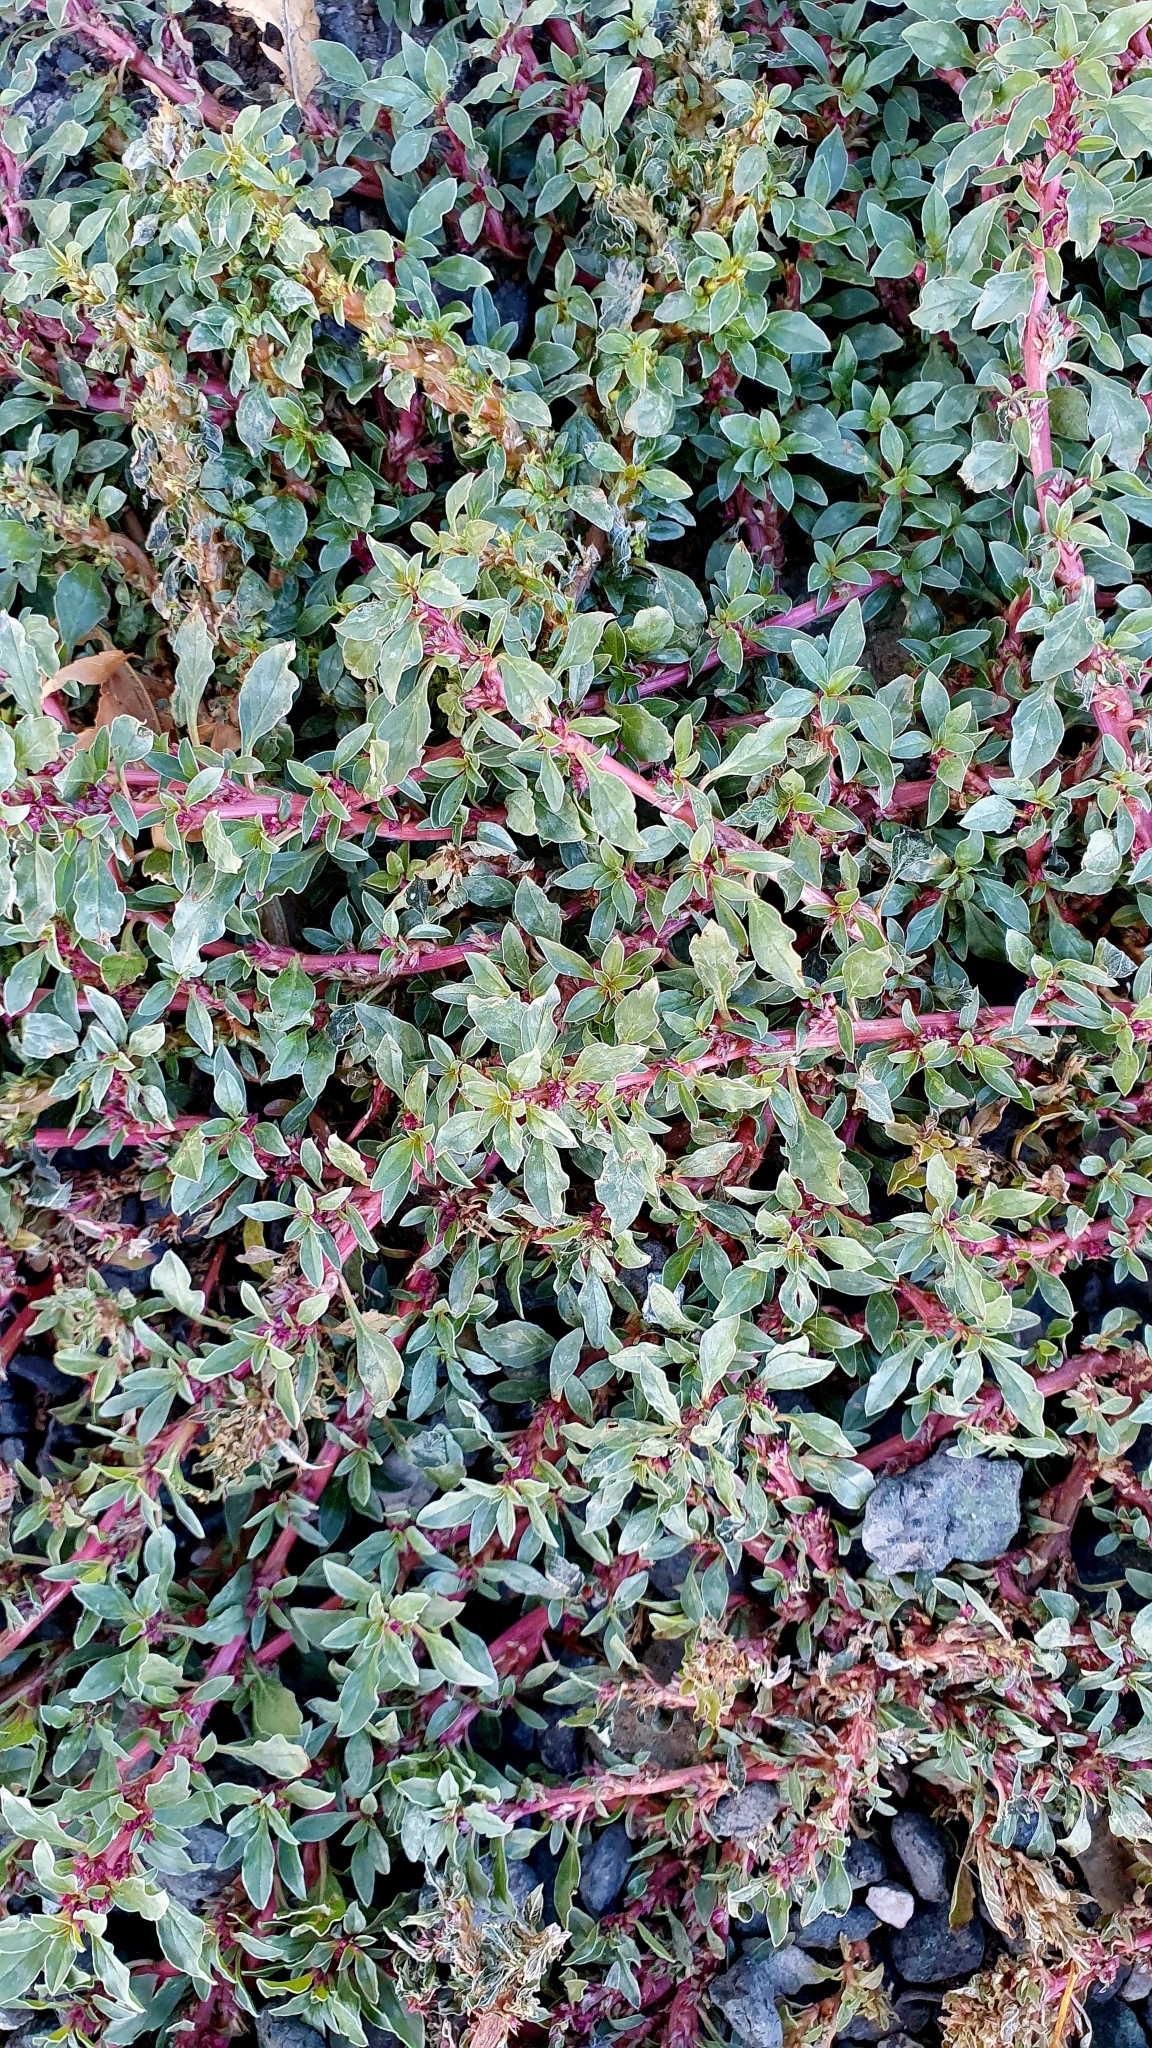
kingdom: Plantae
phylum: Tracheophyta
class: Magnoliopsida
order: Caryophyllales
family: Amaranthaceae
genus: Amaranthus
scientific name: Amaranthus blitoides
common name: Prostrate pigweed
